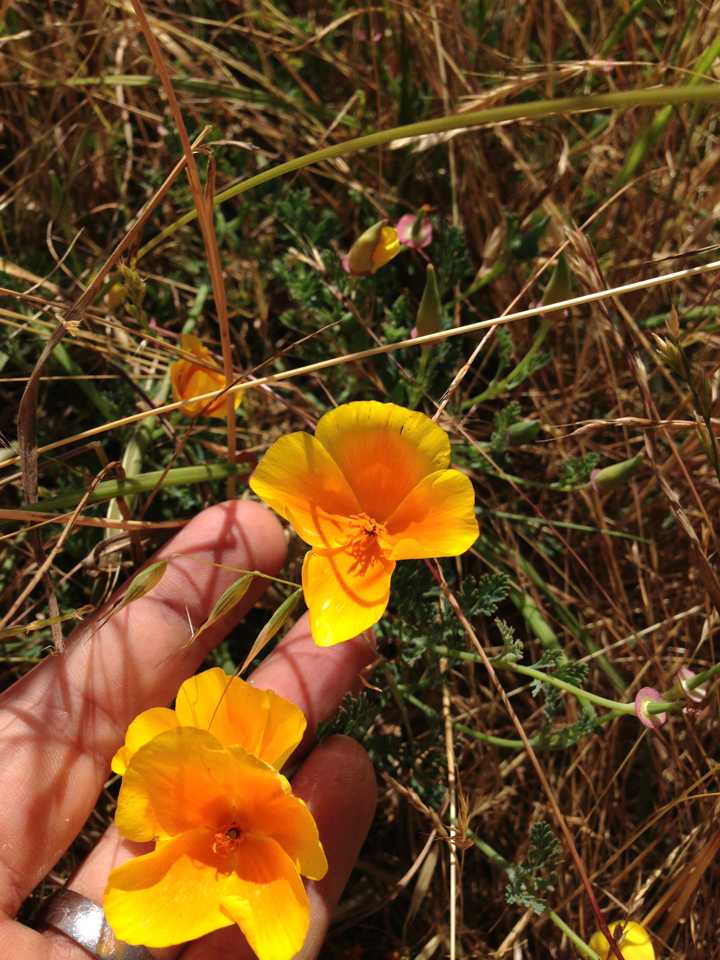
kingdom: Plantae
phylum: Tracheophyta
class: Magnoliopsida
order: Ranunculales
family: Papaveraceae
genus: Eschscholzia
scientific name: Eschscholzia californica
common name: California poppy
